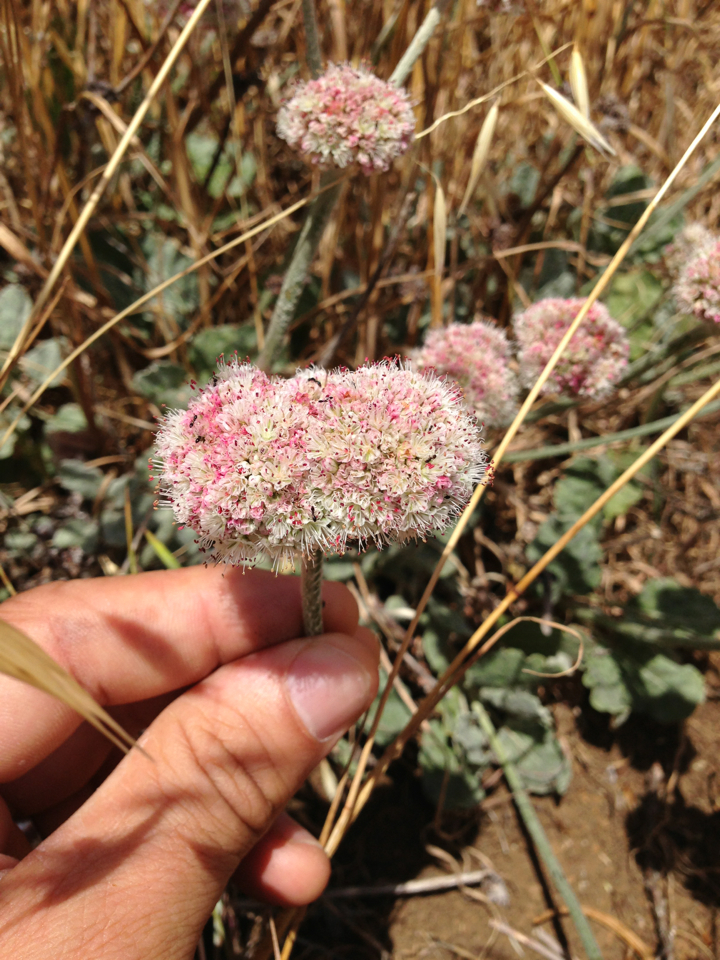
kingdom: Plantae
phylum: Tracheophyta
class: Magnoliopsida
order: Caryophyllales
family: Polygonaceae
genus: Eriogonum
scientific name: Eriogonum latifolium
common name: Seaside wild buckwheat
